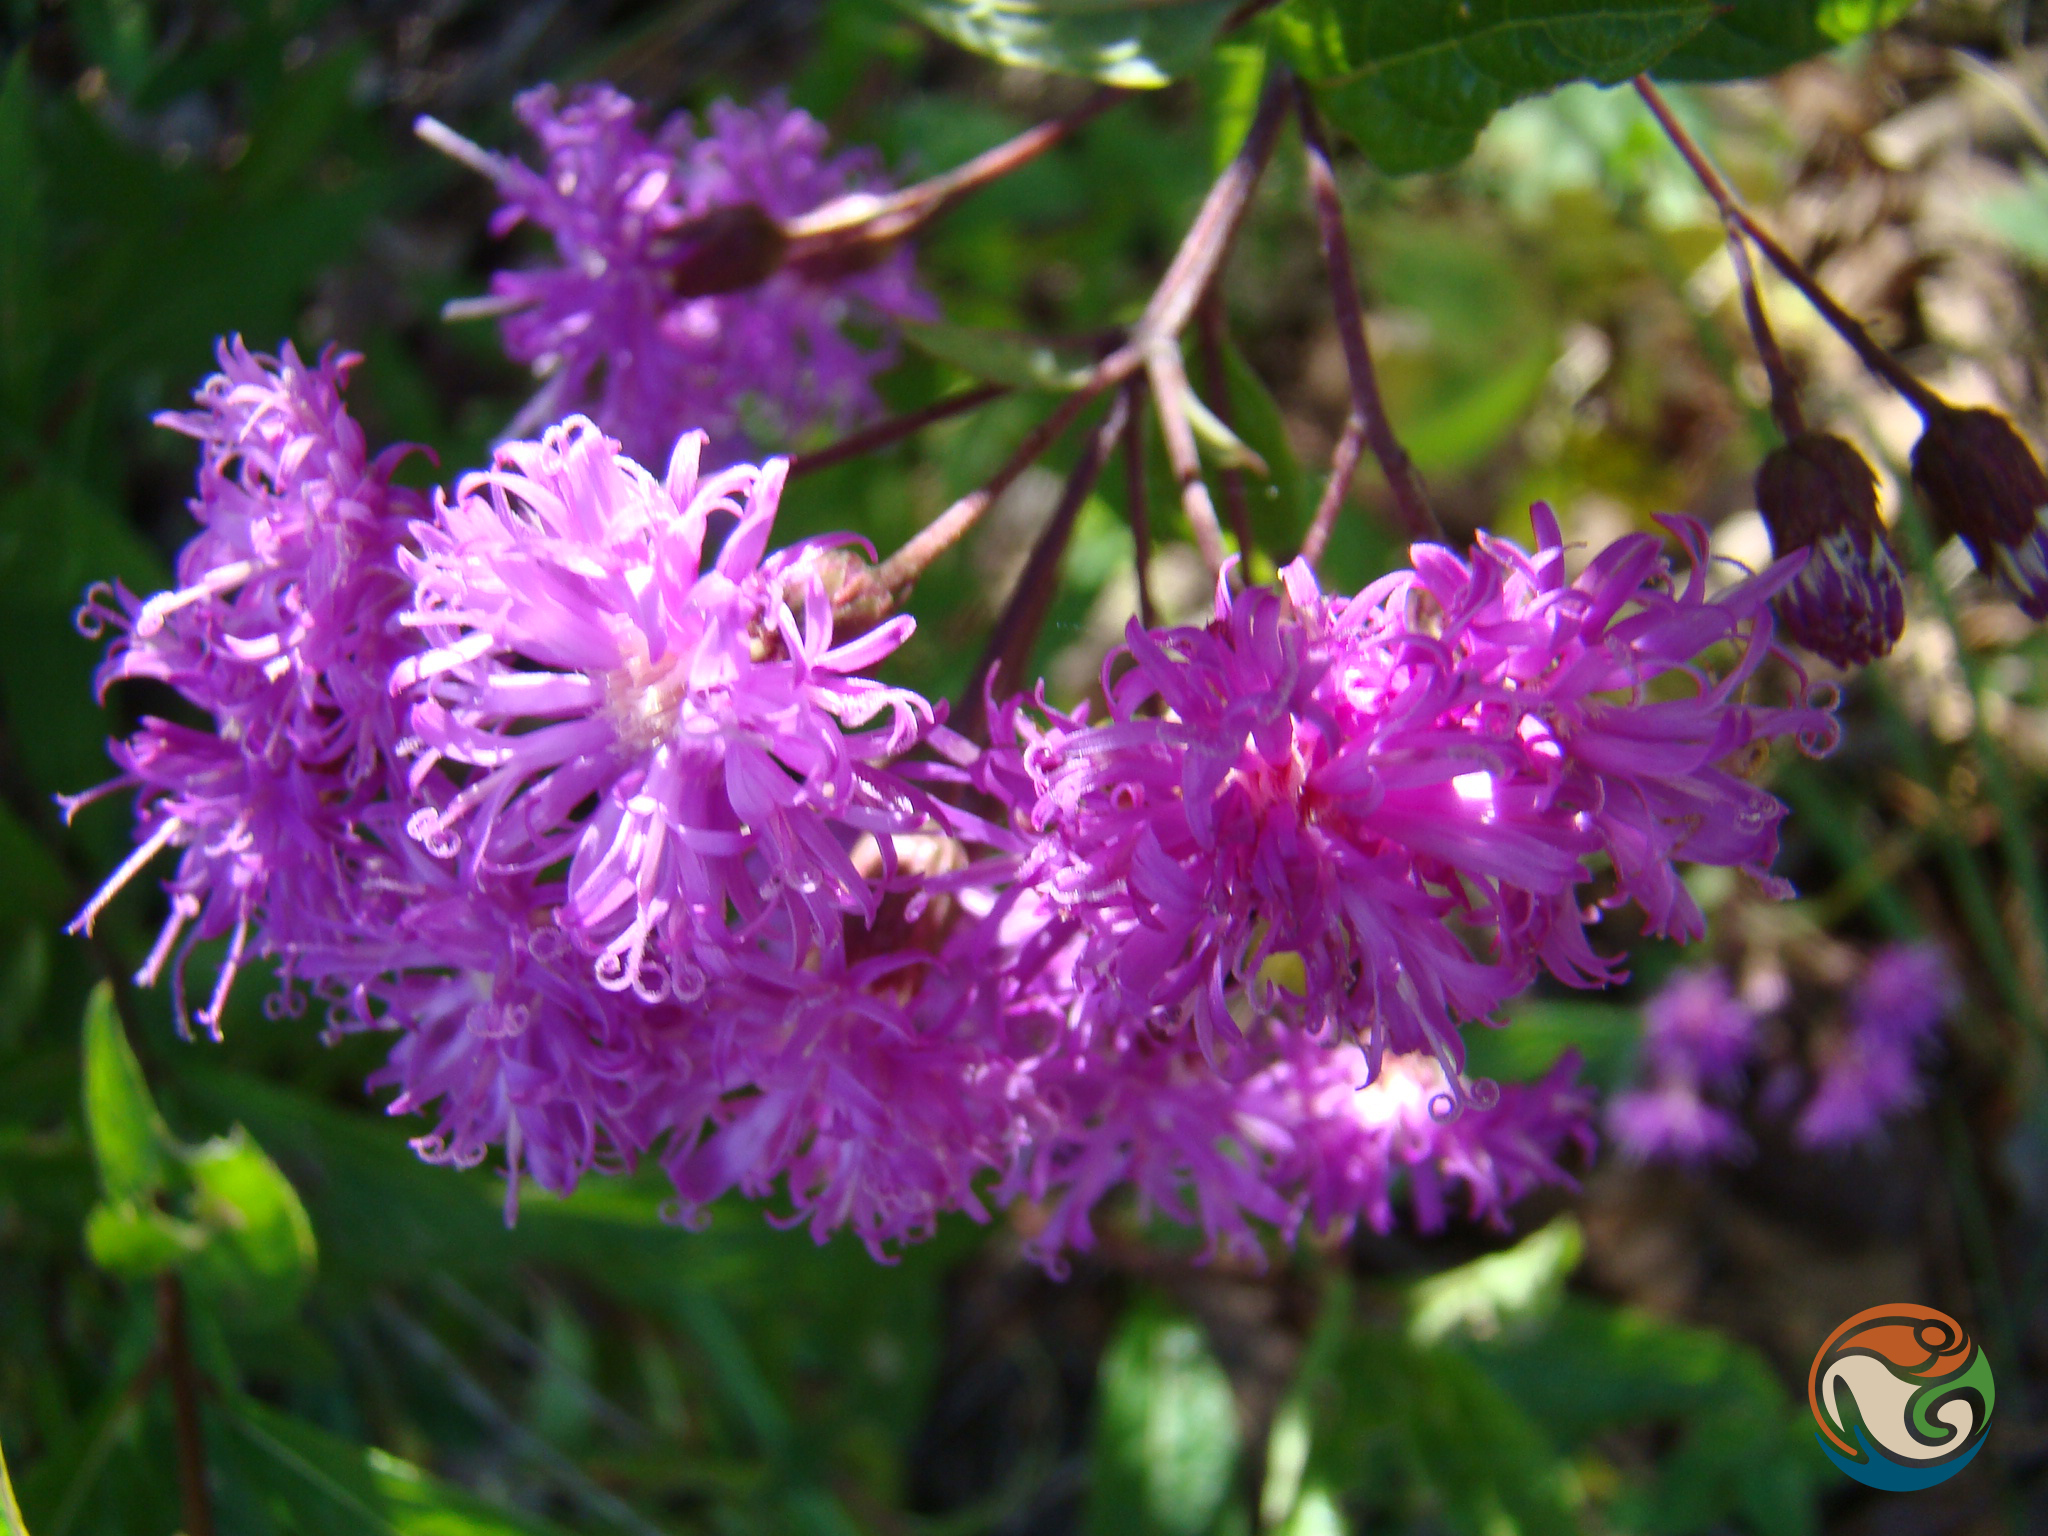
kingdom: Plantae
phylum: Tracheophyta
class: Magnoliopsida
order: Asterales
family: Asteraceae
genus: Vernonia
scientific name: Vernonia karvinskiana
